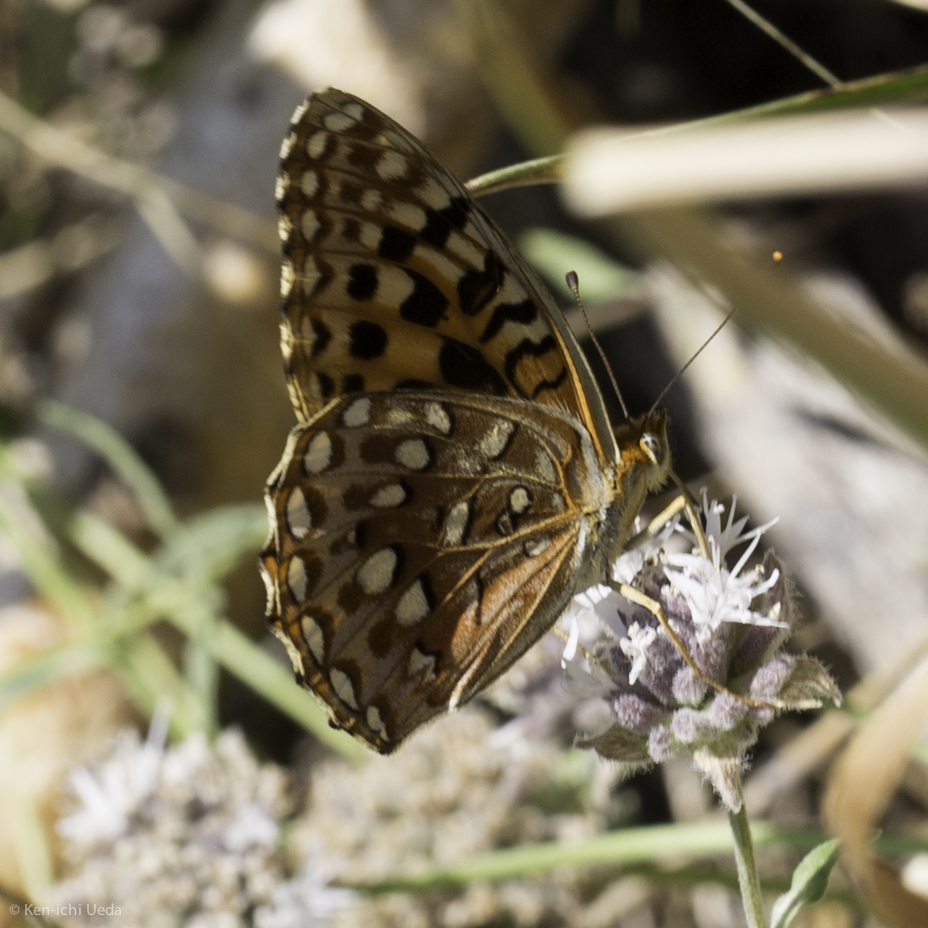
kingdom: Animalia
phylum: Arthropoda
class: Insecta
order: Lepidoptera
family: Nymphalidae
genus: Speyeria
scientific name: Speyeria zerene
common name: Zerene fritillary
